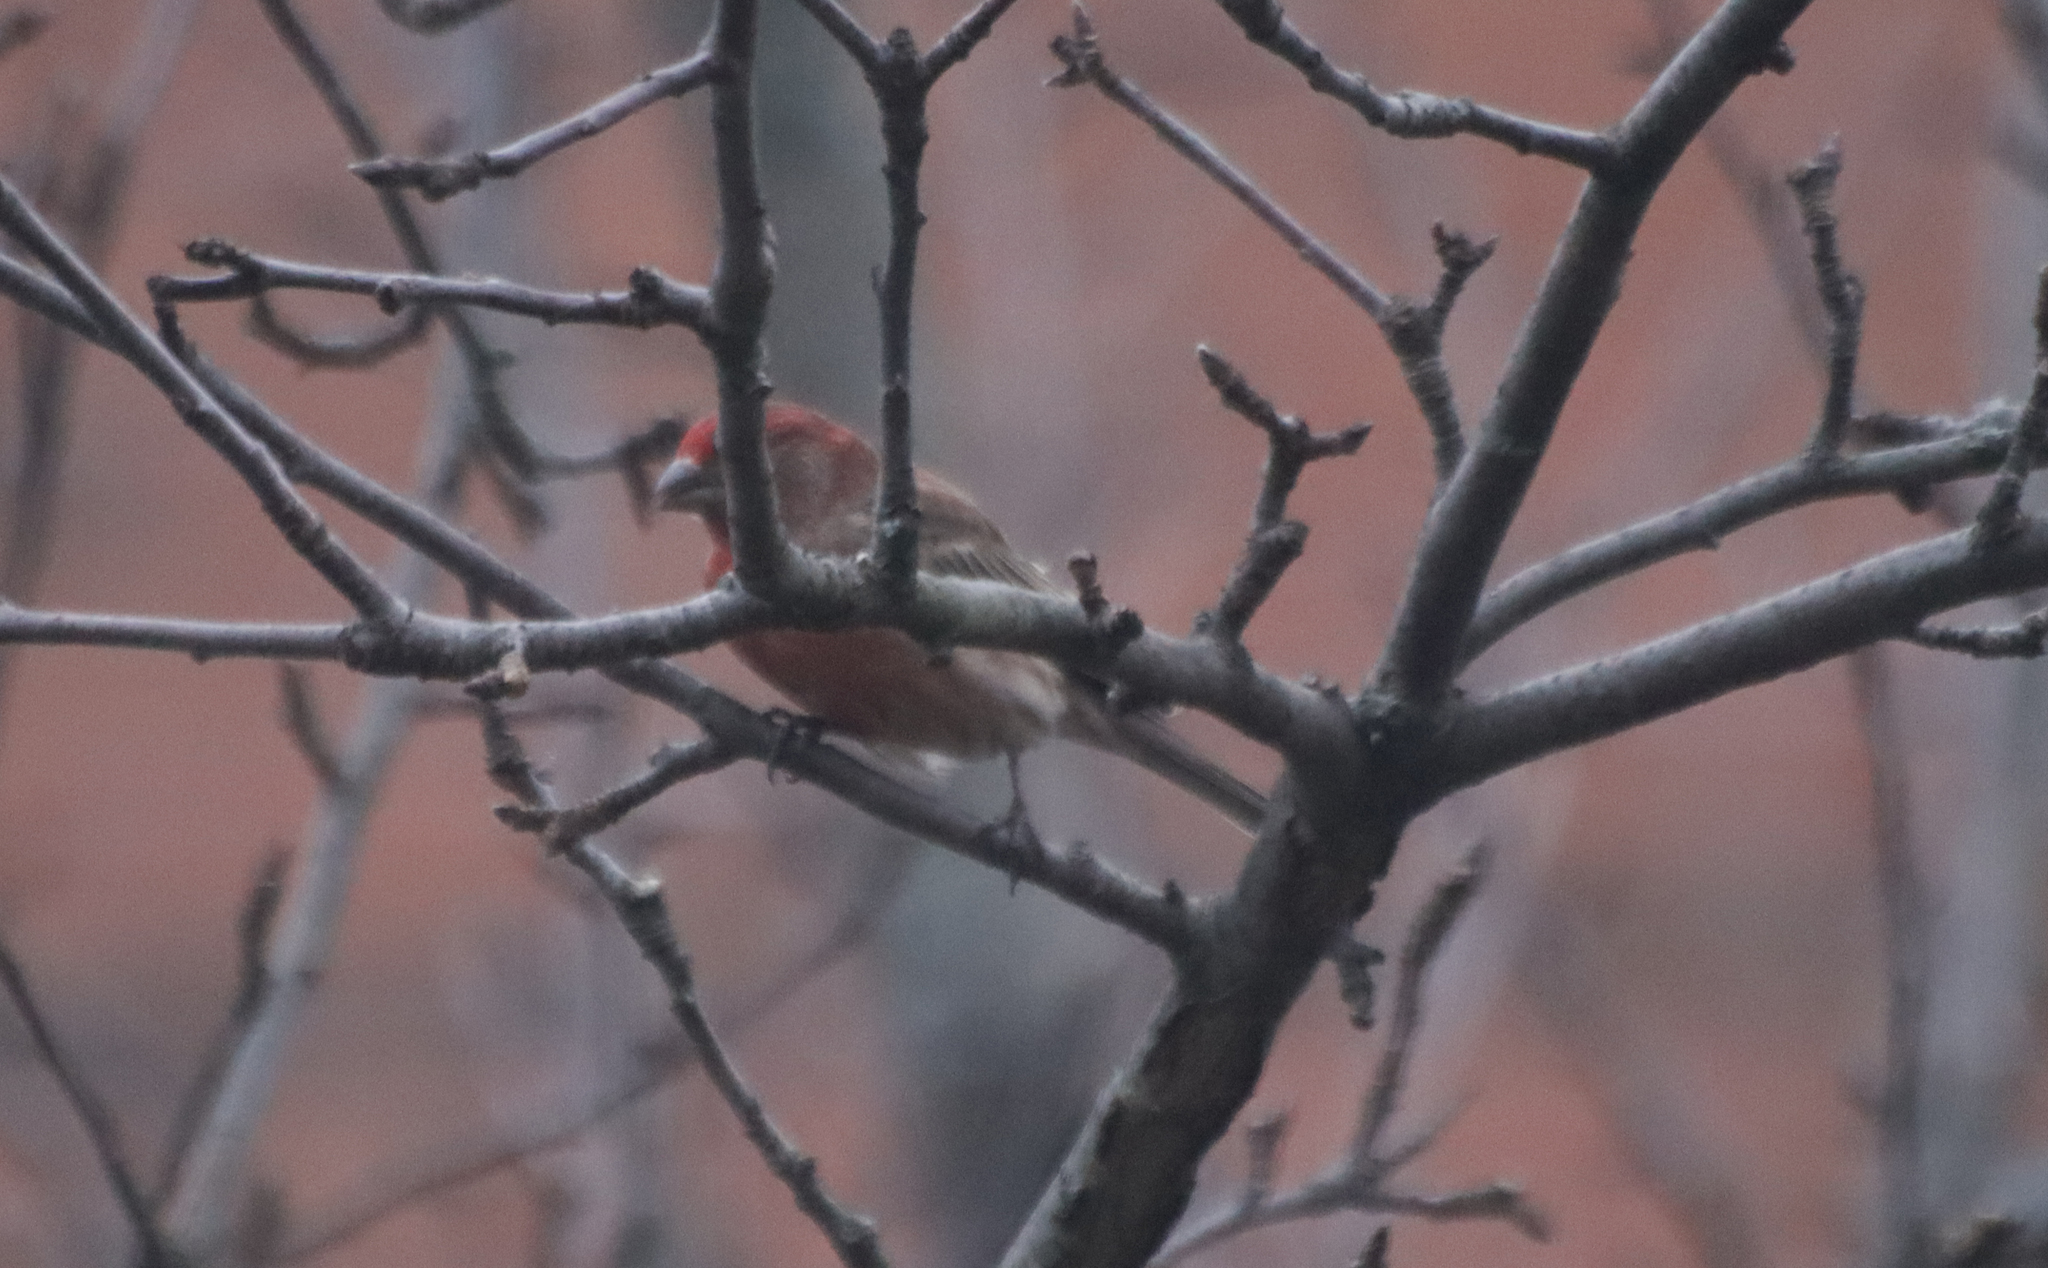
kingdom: Animalia
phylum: Chordata
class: Aves
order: Passeriformes
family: Fringillidae
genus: Haemorhous
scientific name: Haemorhous mexicanus
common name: House finch
